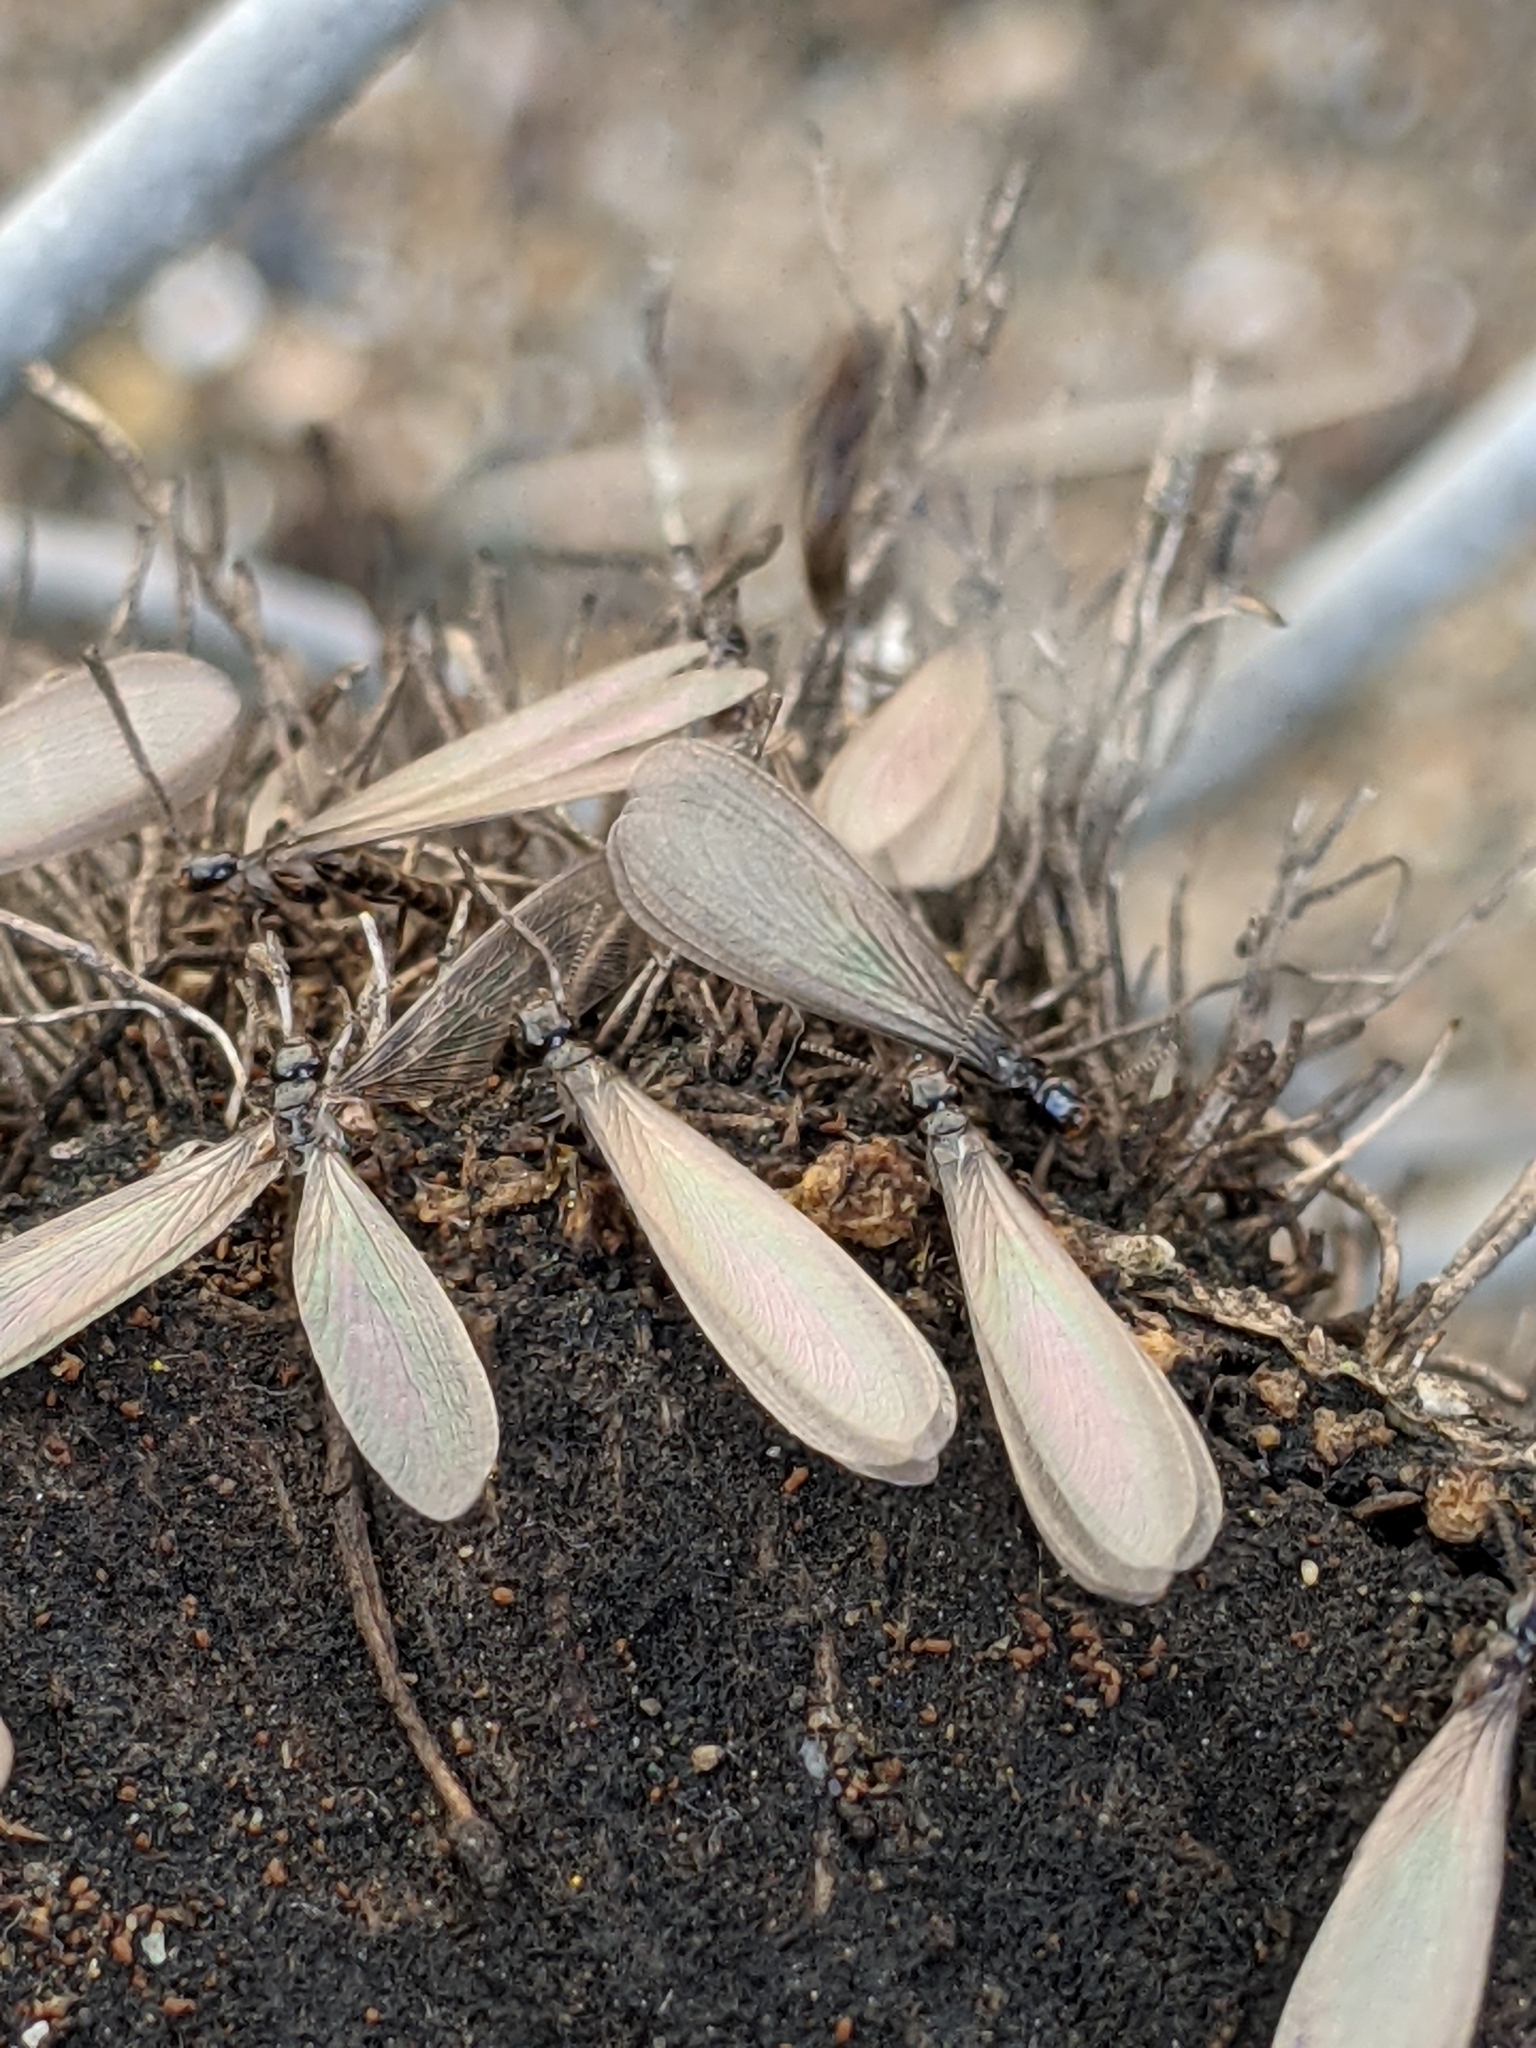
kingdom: Animalia
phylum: Arthropoda
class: Insecta
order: Blattodea
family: Rhinotermitidae
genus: Reticulitermes
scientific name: Reticulitermes hesperus
